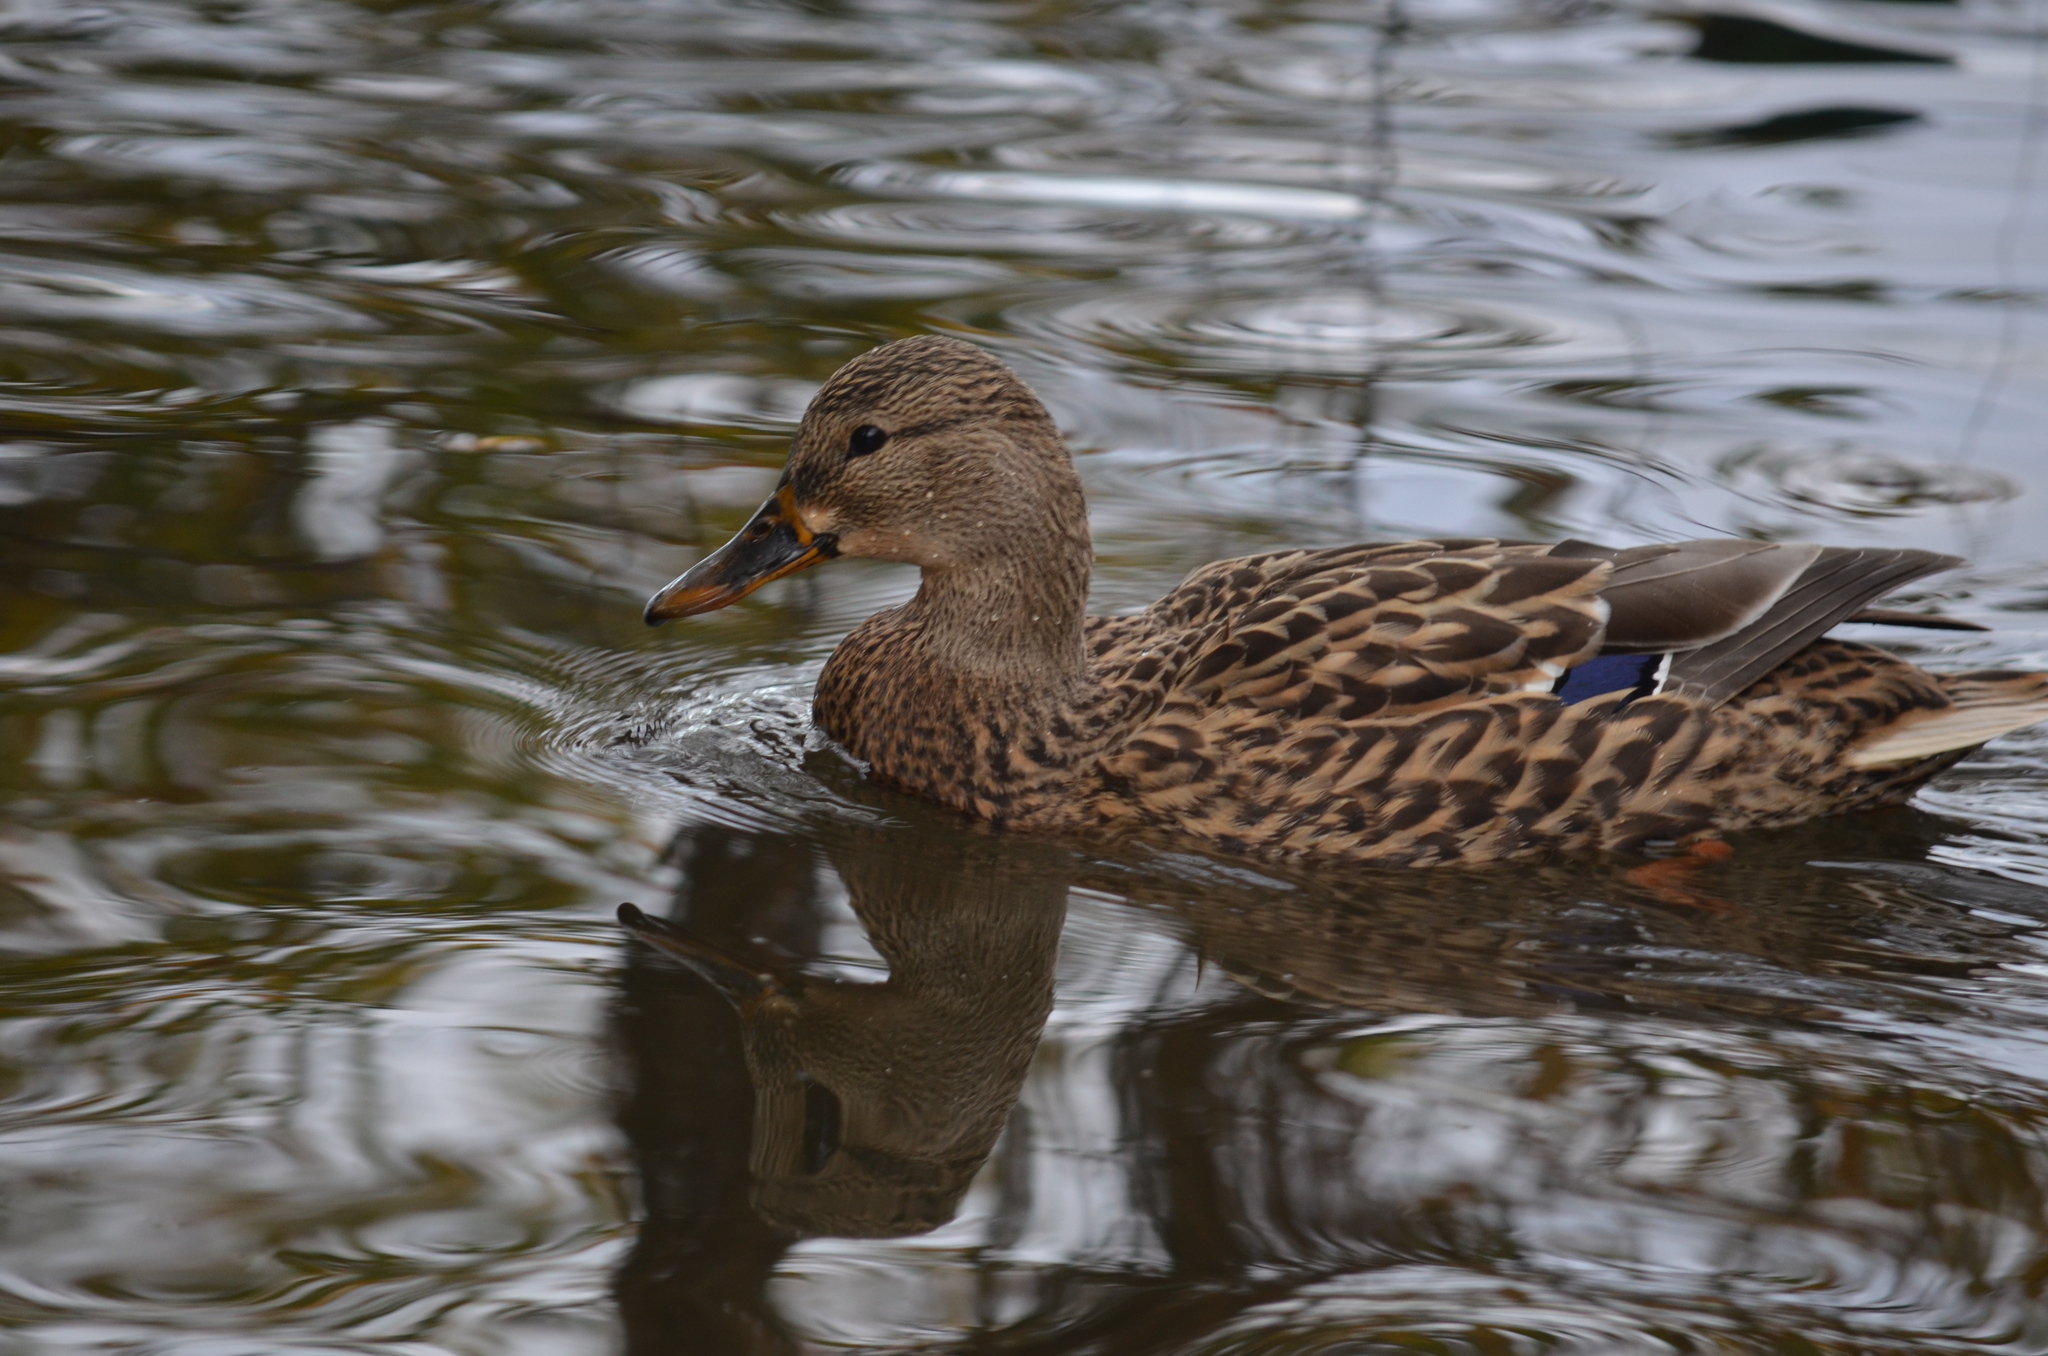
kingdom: Animalia
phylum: Chordata
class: Aves
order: Anseriformes
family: Anatidae
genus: Anas
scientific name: Anas platyrhynchos
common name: Mallard
